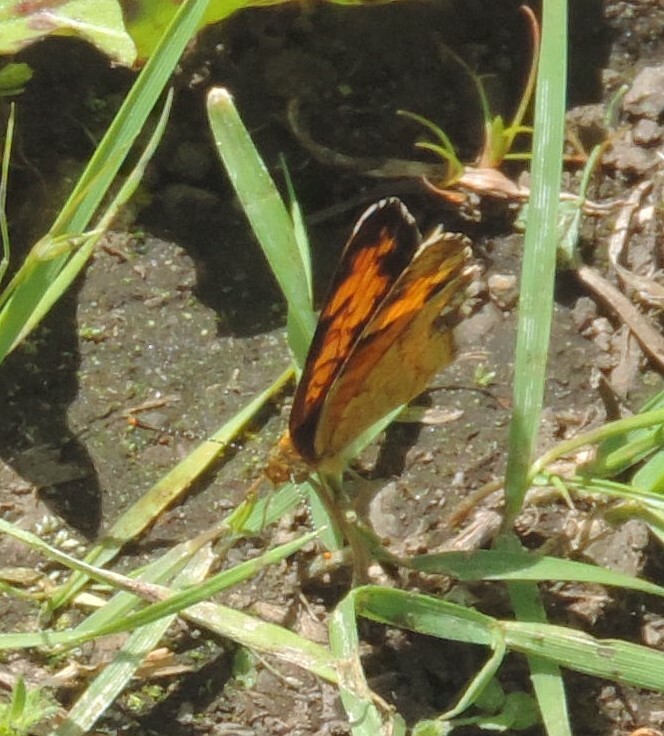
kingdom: Animalia
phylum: Arthropoda
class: Insecta
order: Lepidoptera
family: Nymphalidae
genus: Phyciodes
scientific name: Phyciodes tharos
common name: Pearl crescent
